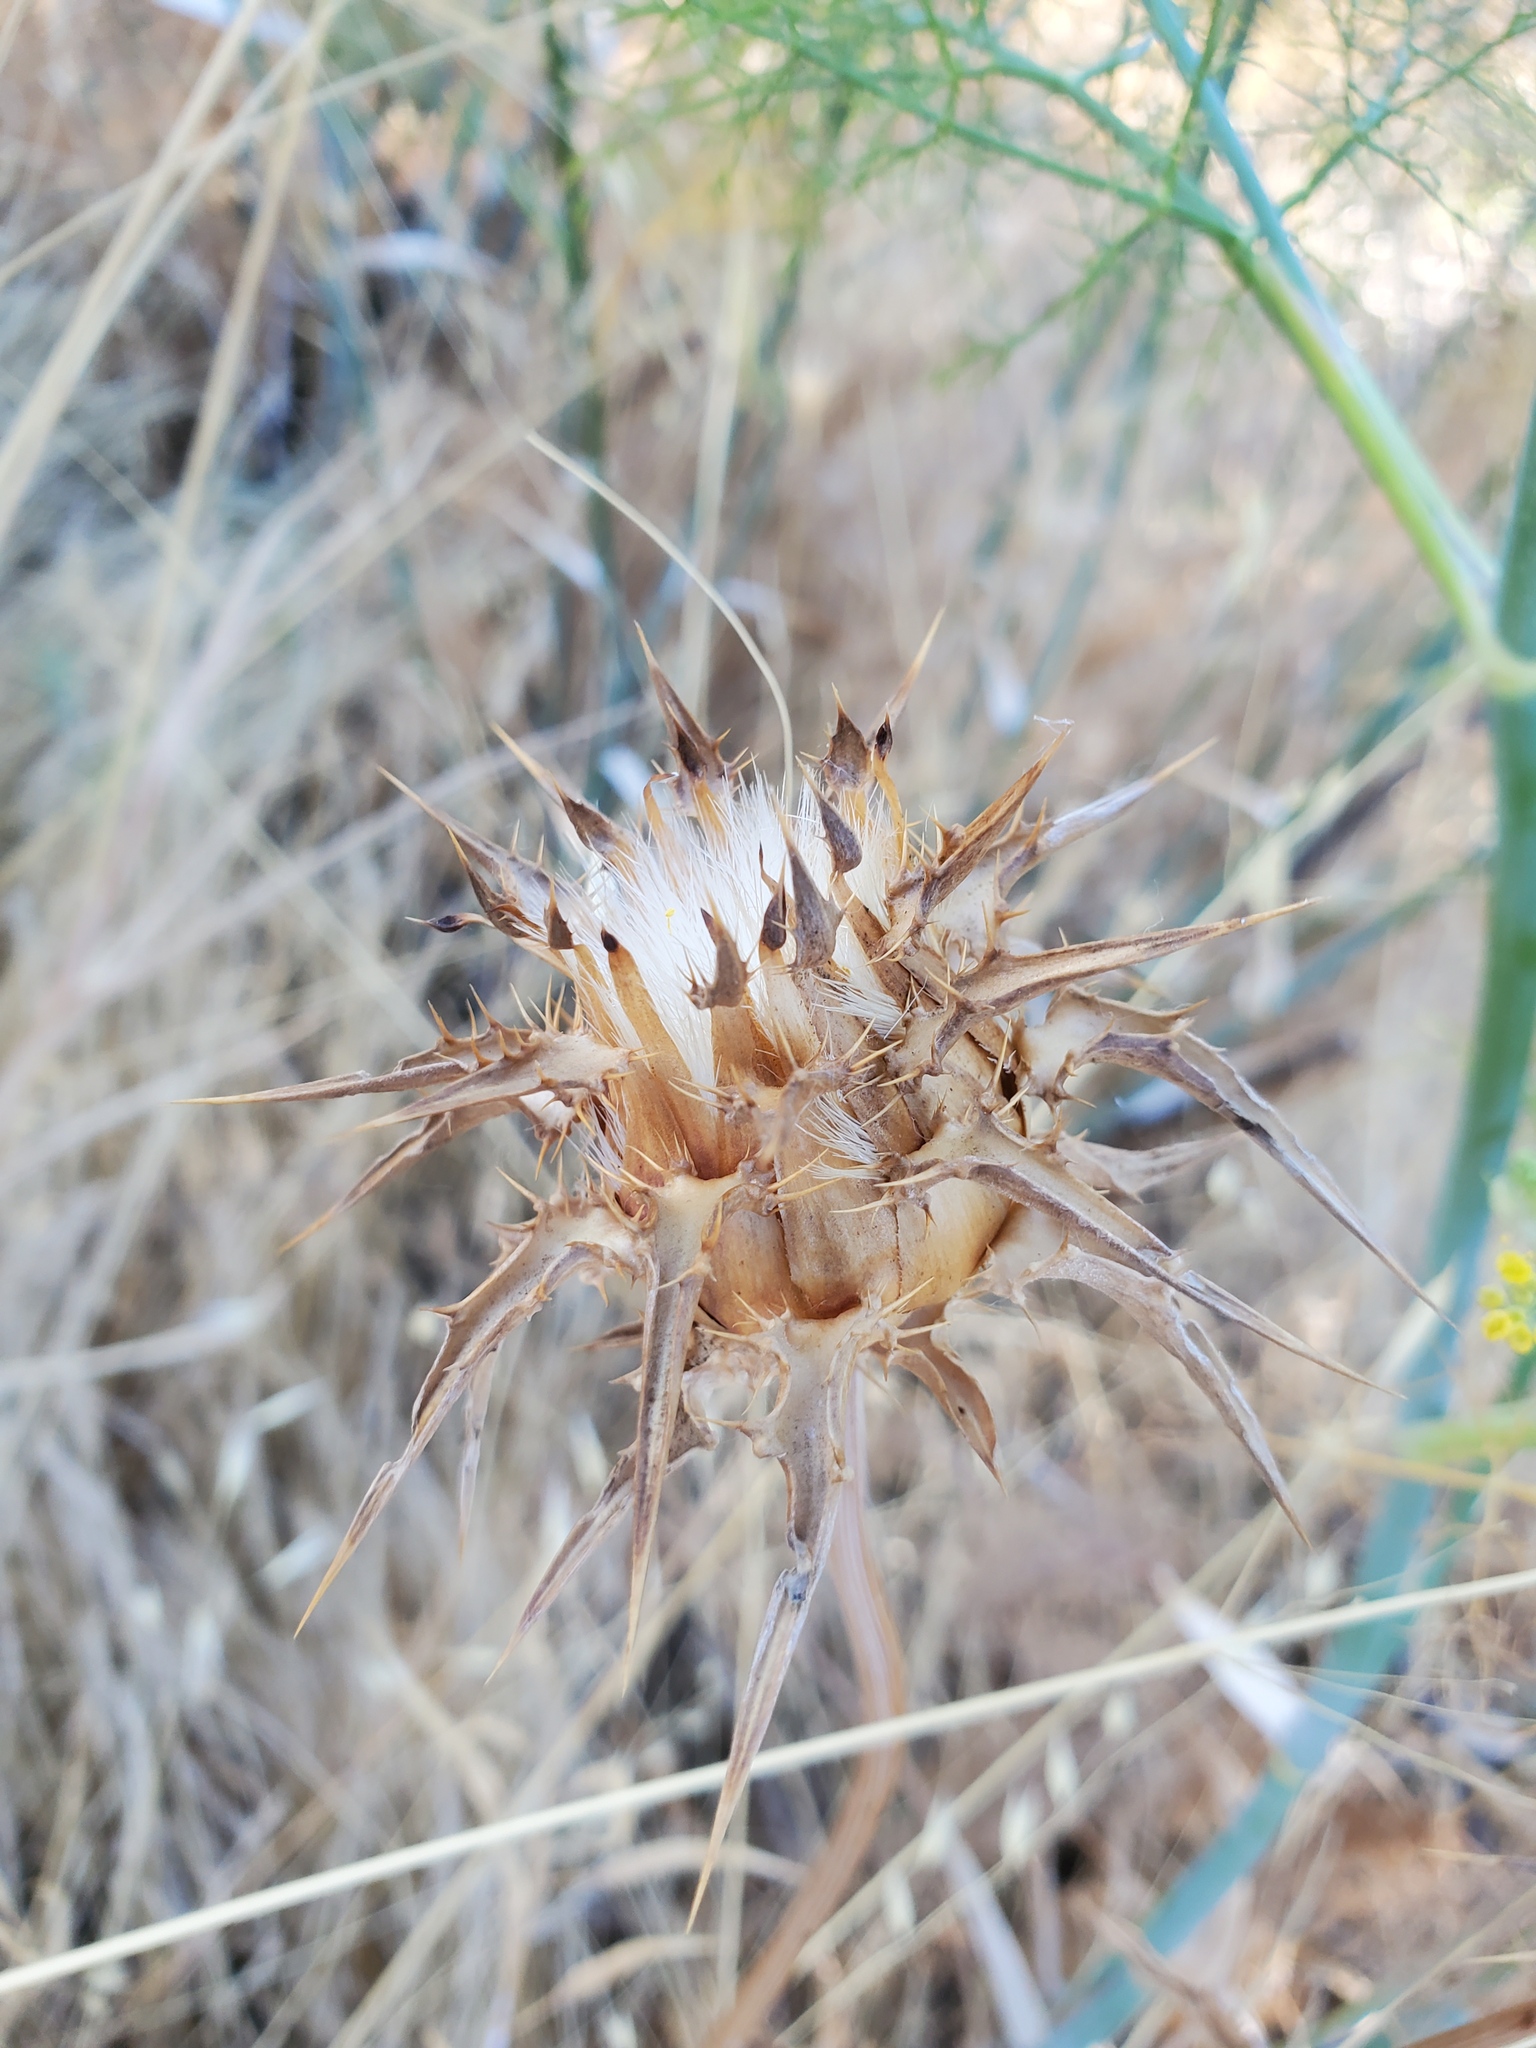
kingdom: Plantae
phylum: Tracheophyta
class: Magnoliopsida
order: Asterales
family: Asteraceae
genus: Silybum
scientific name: Silybum marianum
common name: Milk thistle
